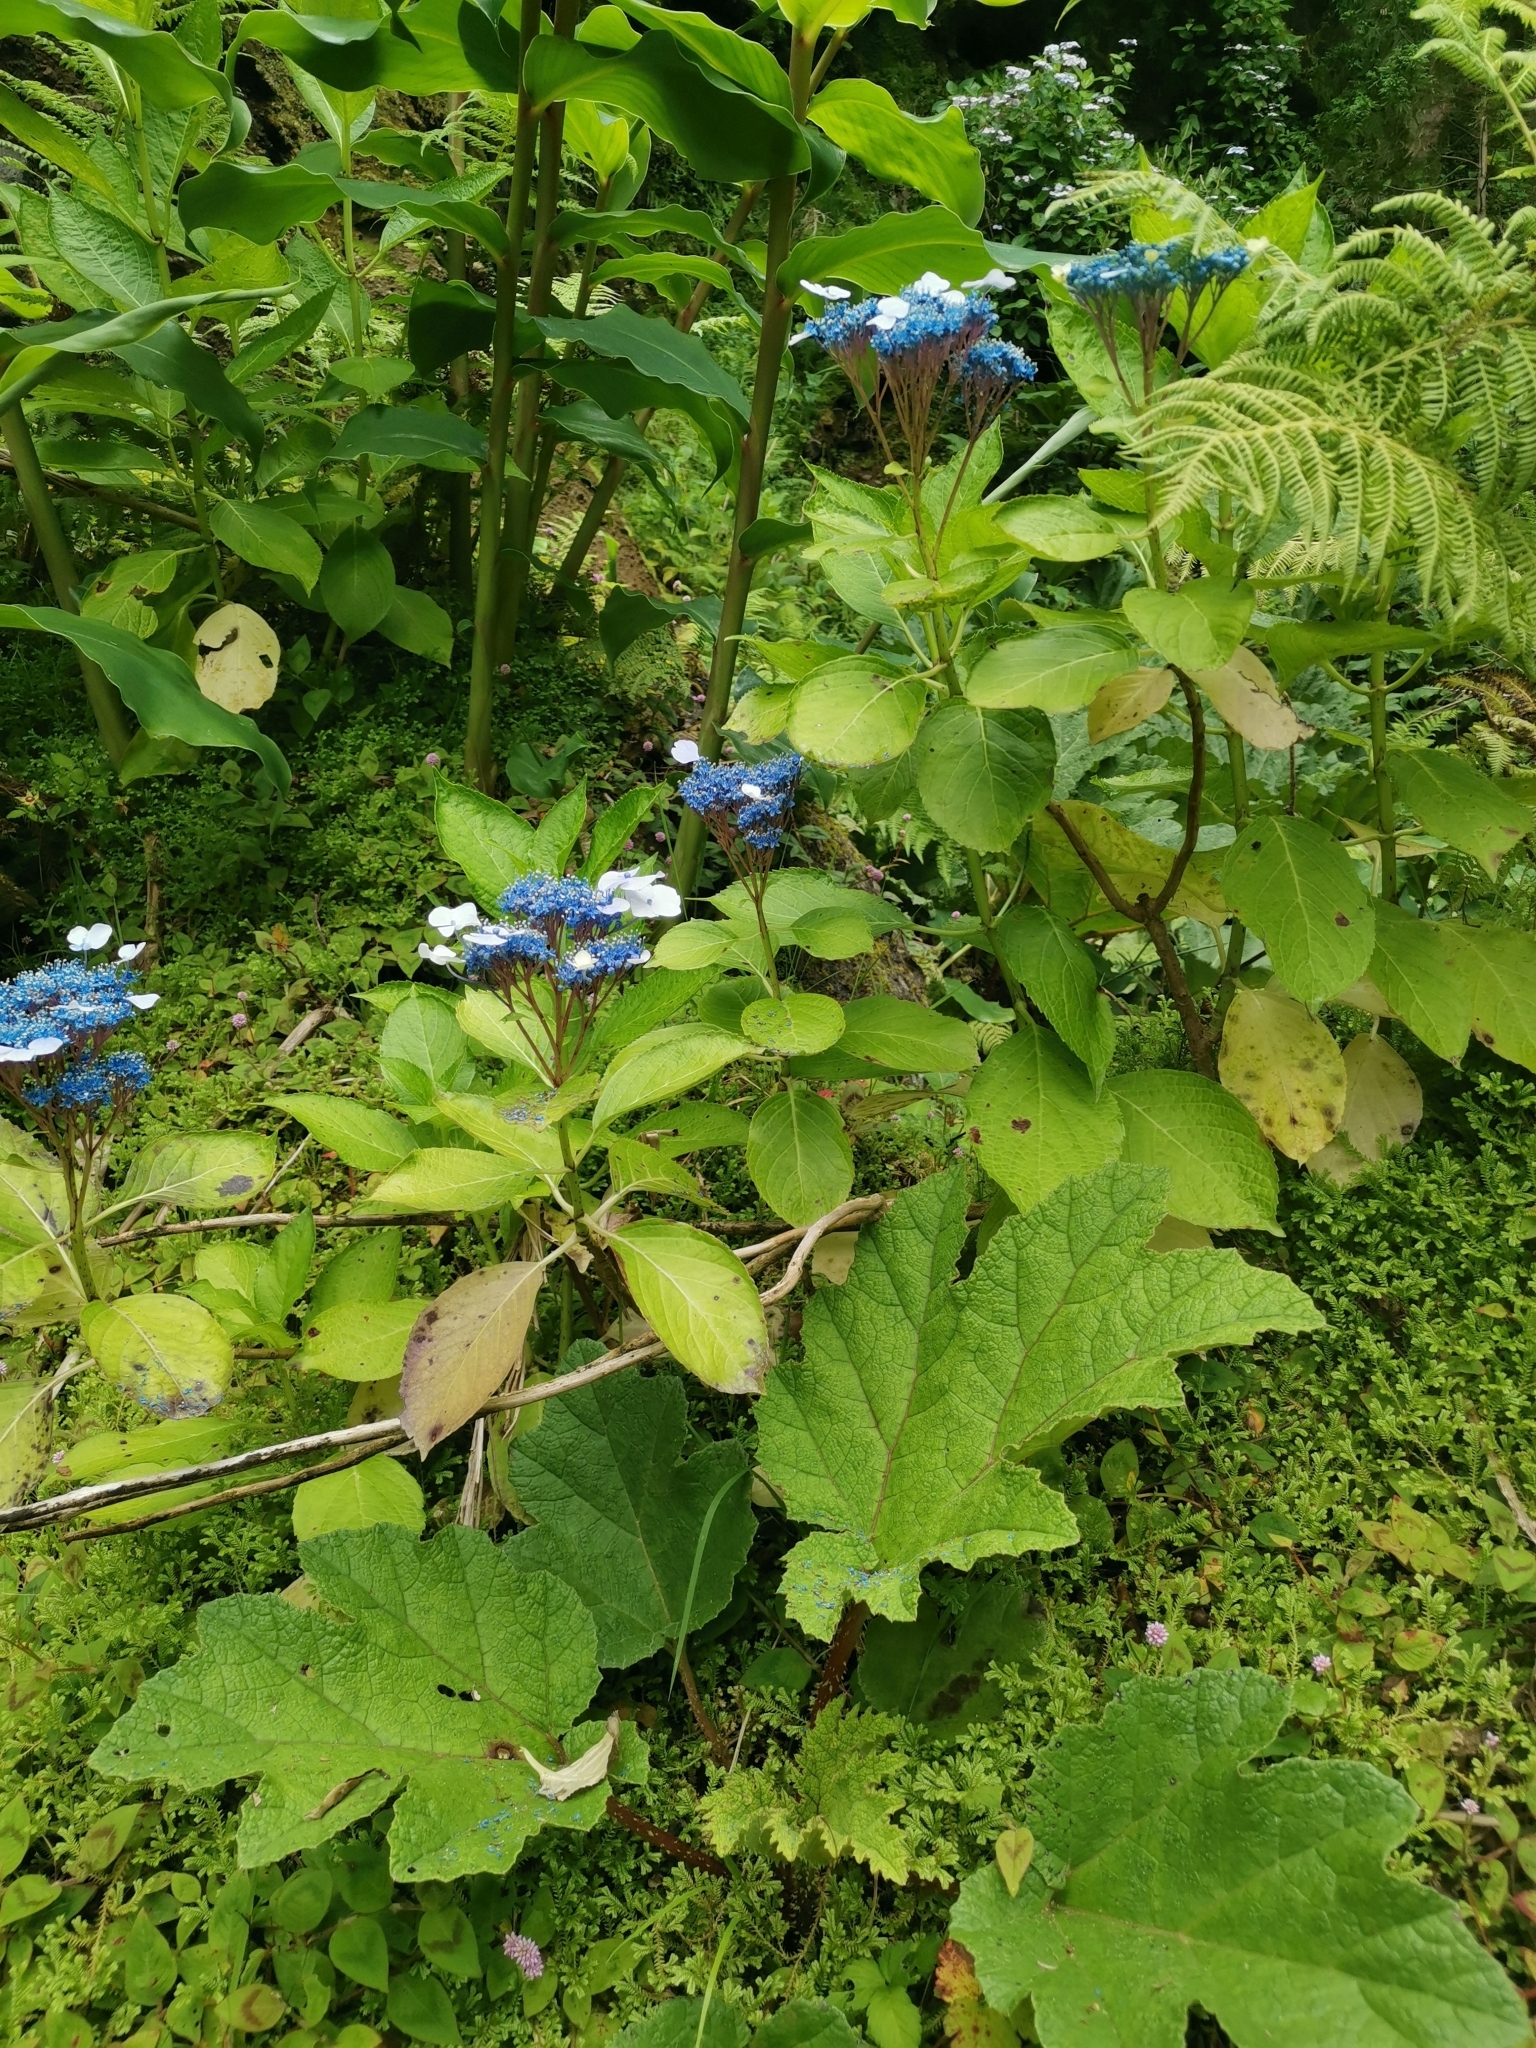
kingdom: Plantae
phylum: Tracheophyta
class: Magnoliopsida
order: Cornales
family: Hydrangeaceae
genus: Hydrangea
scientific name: Hydrangea macrophylla
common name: Hydrangea
